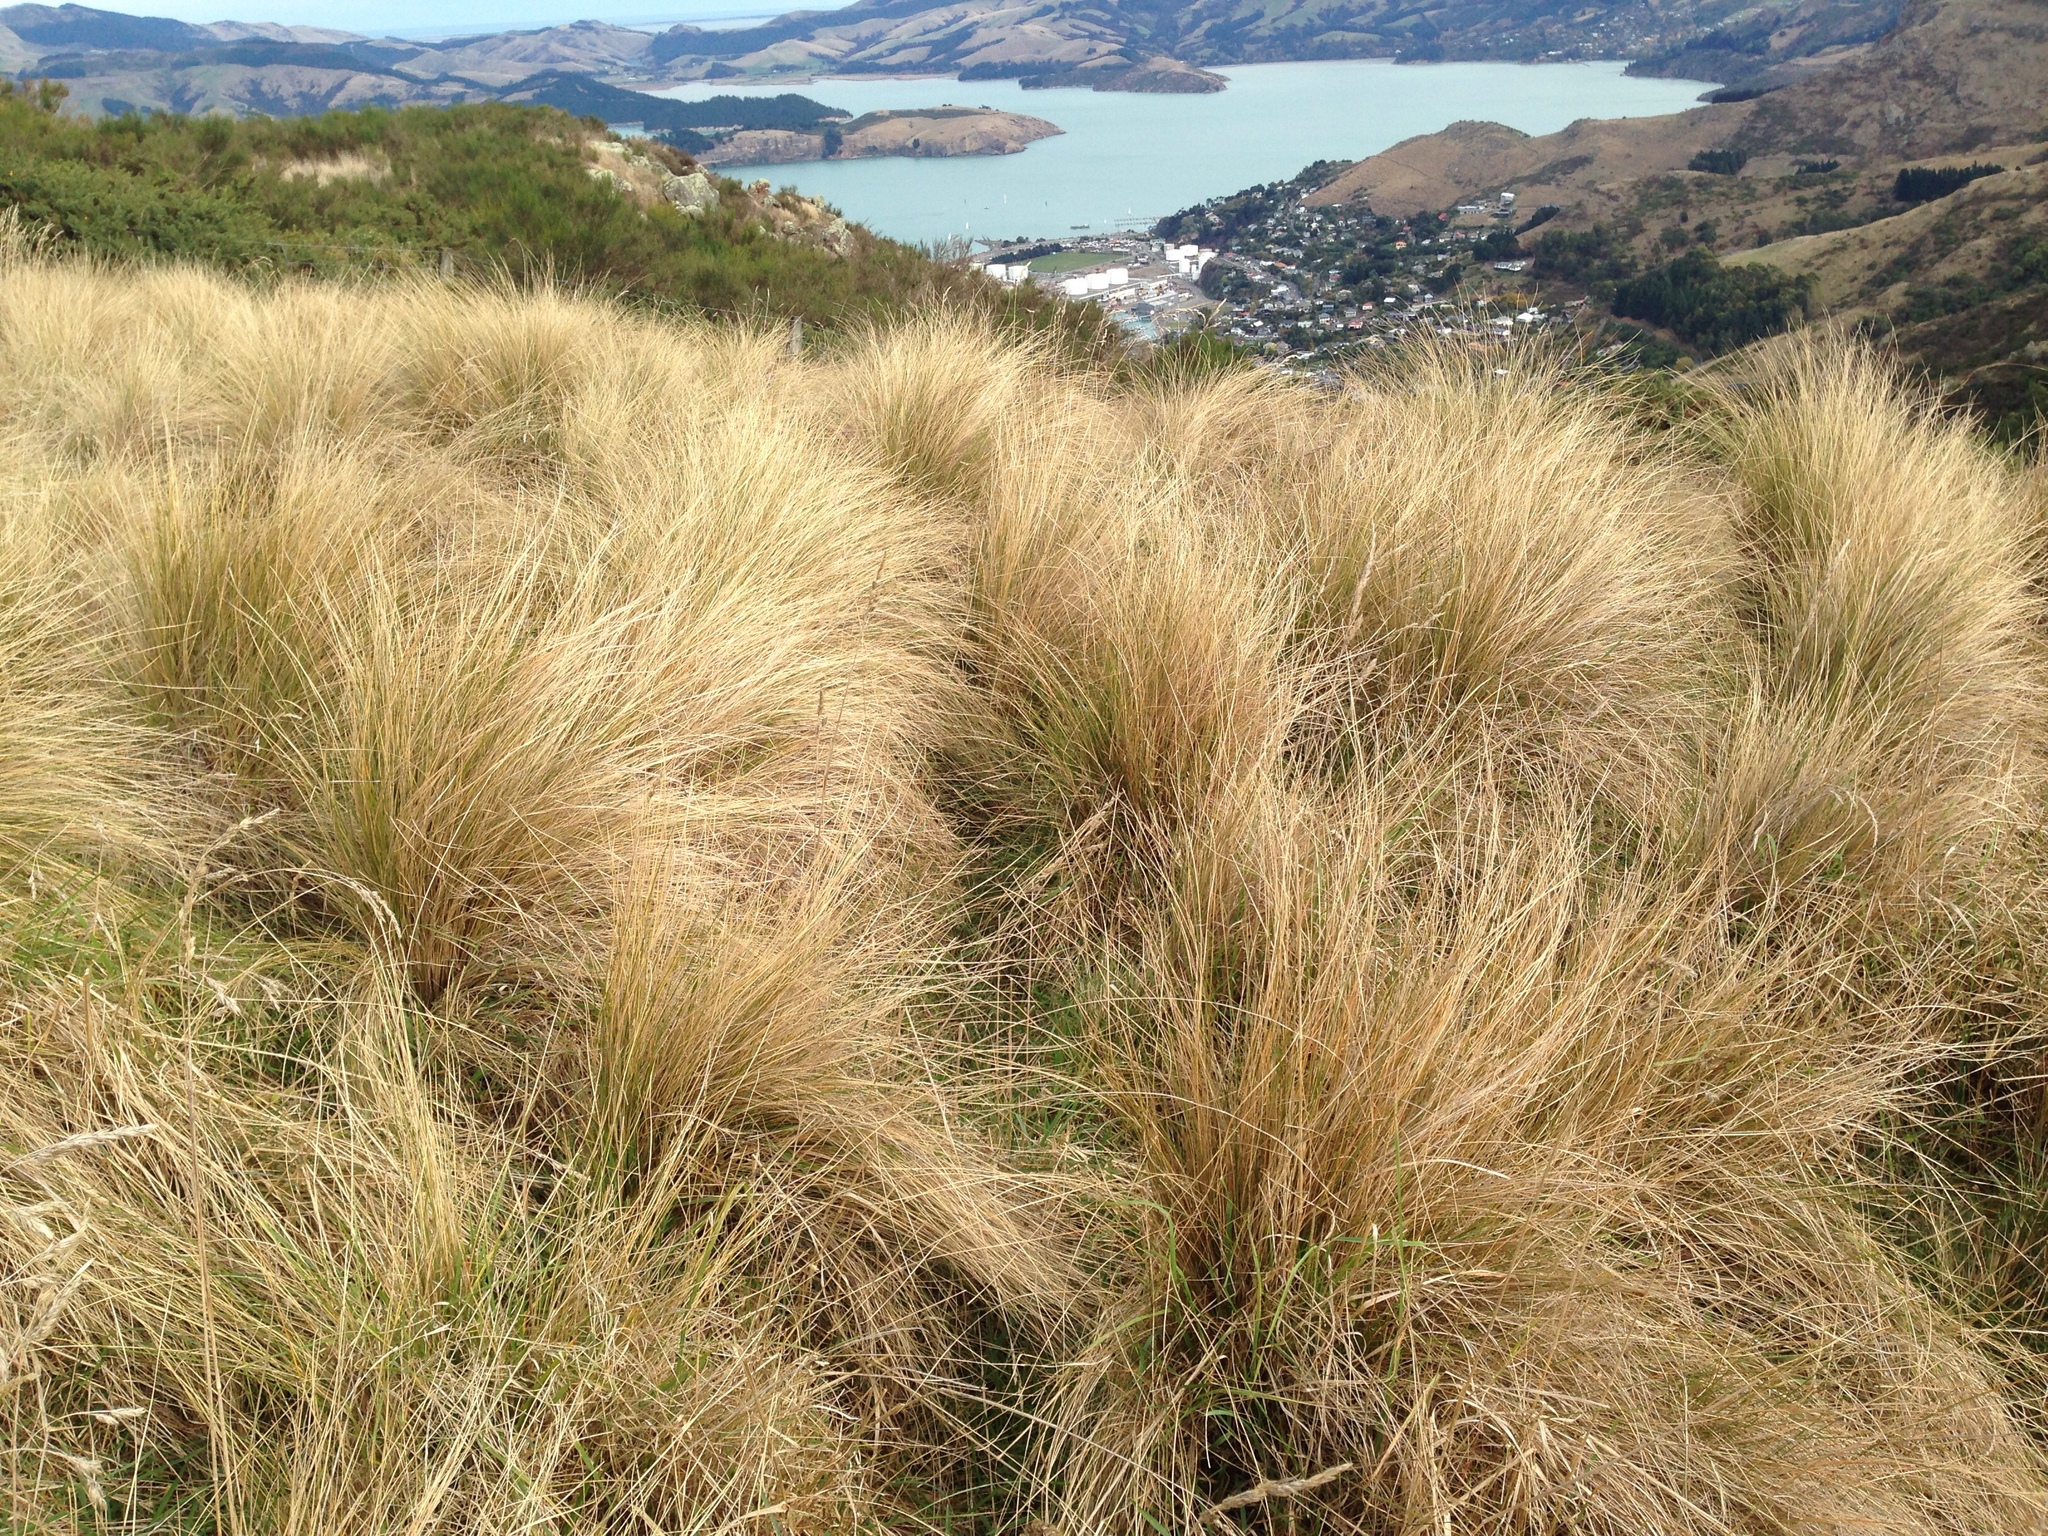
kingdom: Plantae
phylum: Tracheophyta
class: Liliopsida
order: Poales
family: Poaceae
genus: Poa
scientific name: Poa cita
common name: Silver tussock
